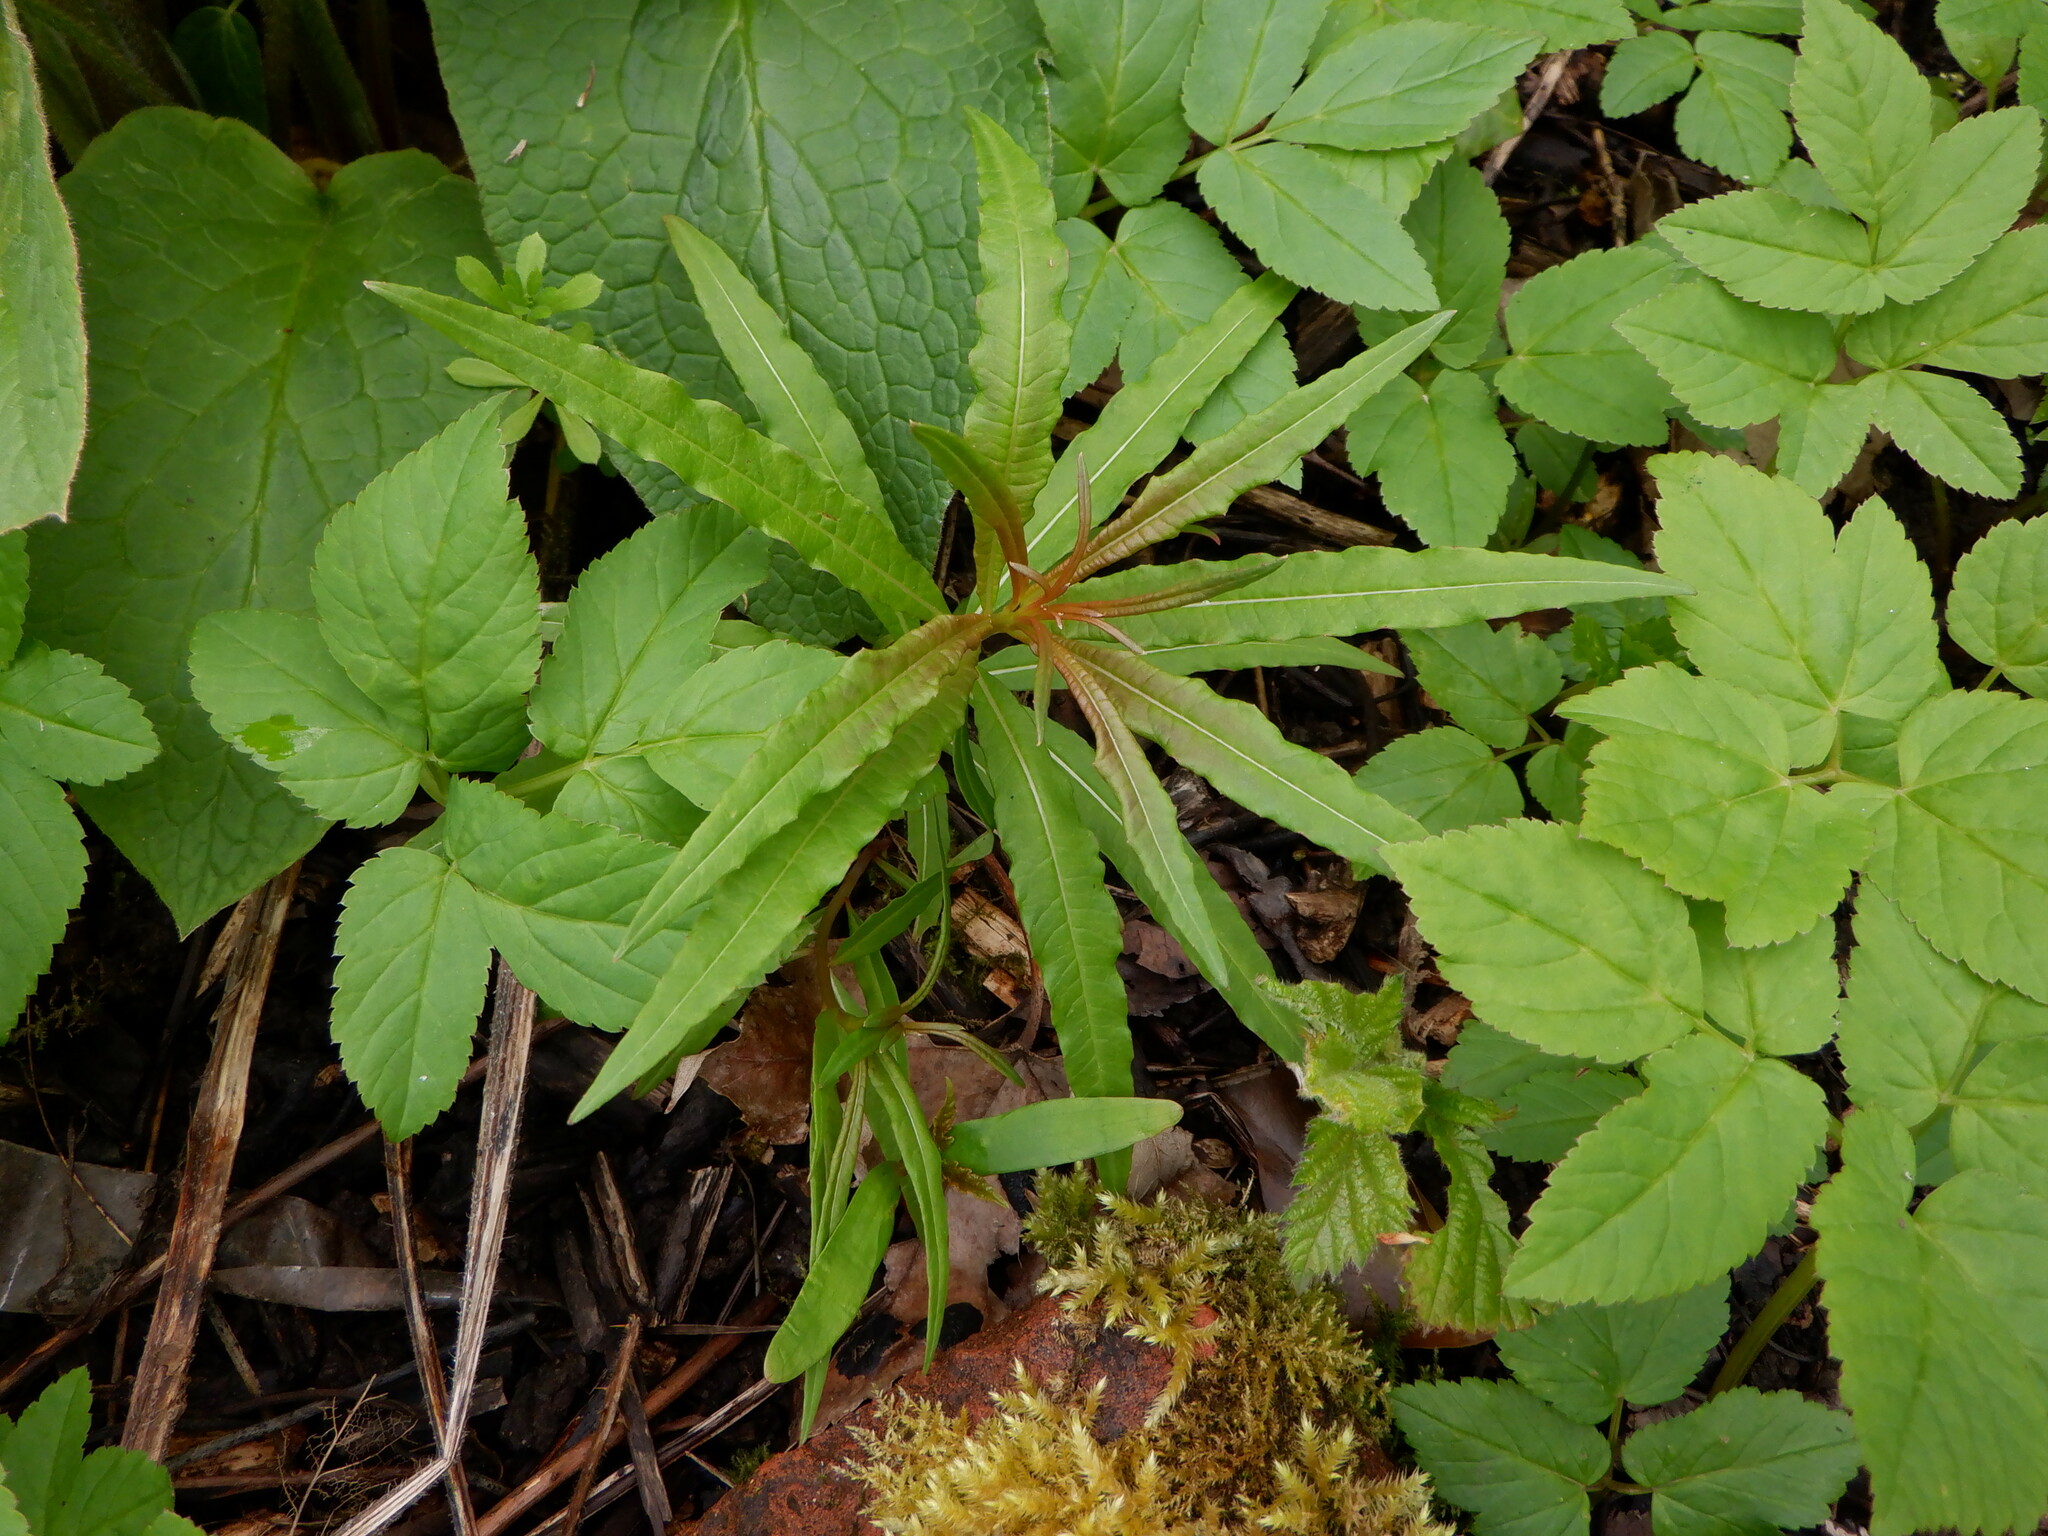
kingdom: Plantae
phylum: Tracheophyta
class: Magnoliopsida
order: Myrtales
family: Onagraceae
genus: Chamaenerion
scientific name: Chamaenerion angustifolium
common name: Fireweed
